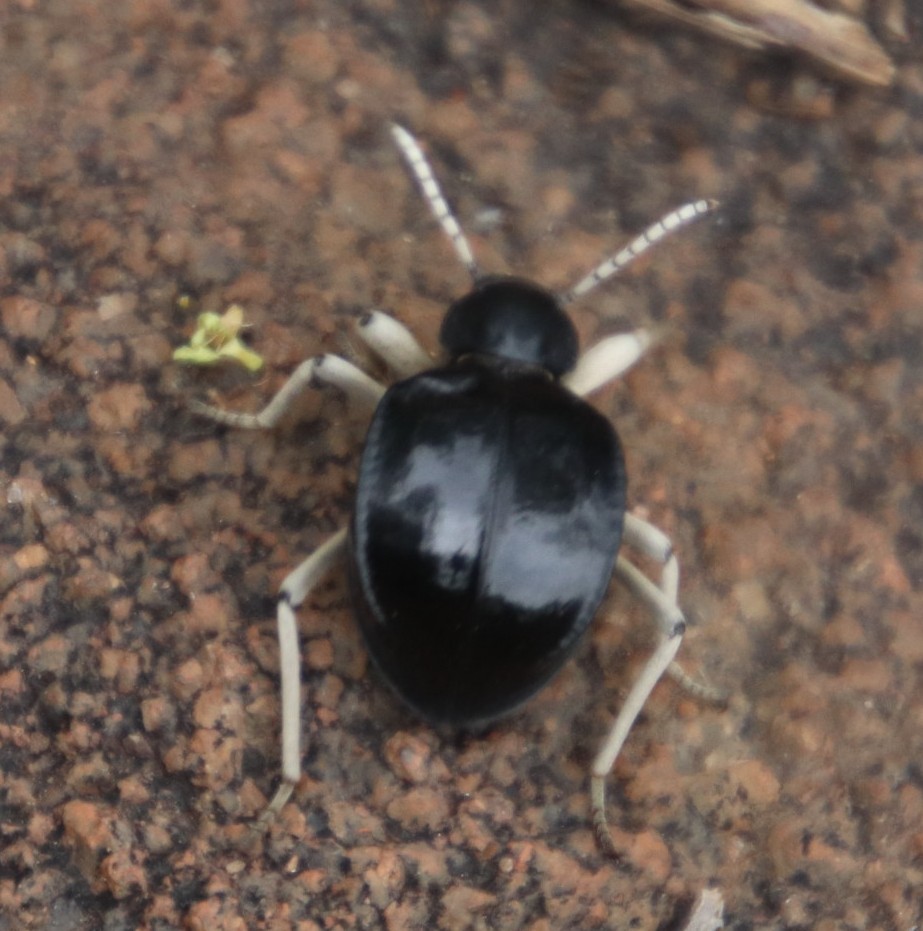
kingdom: Animalia
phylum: Arthropoda
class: Insecta
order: Coleoptera
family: Tenebrionidae
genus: Dichtha
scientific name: Dichtha cubica
